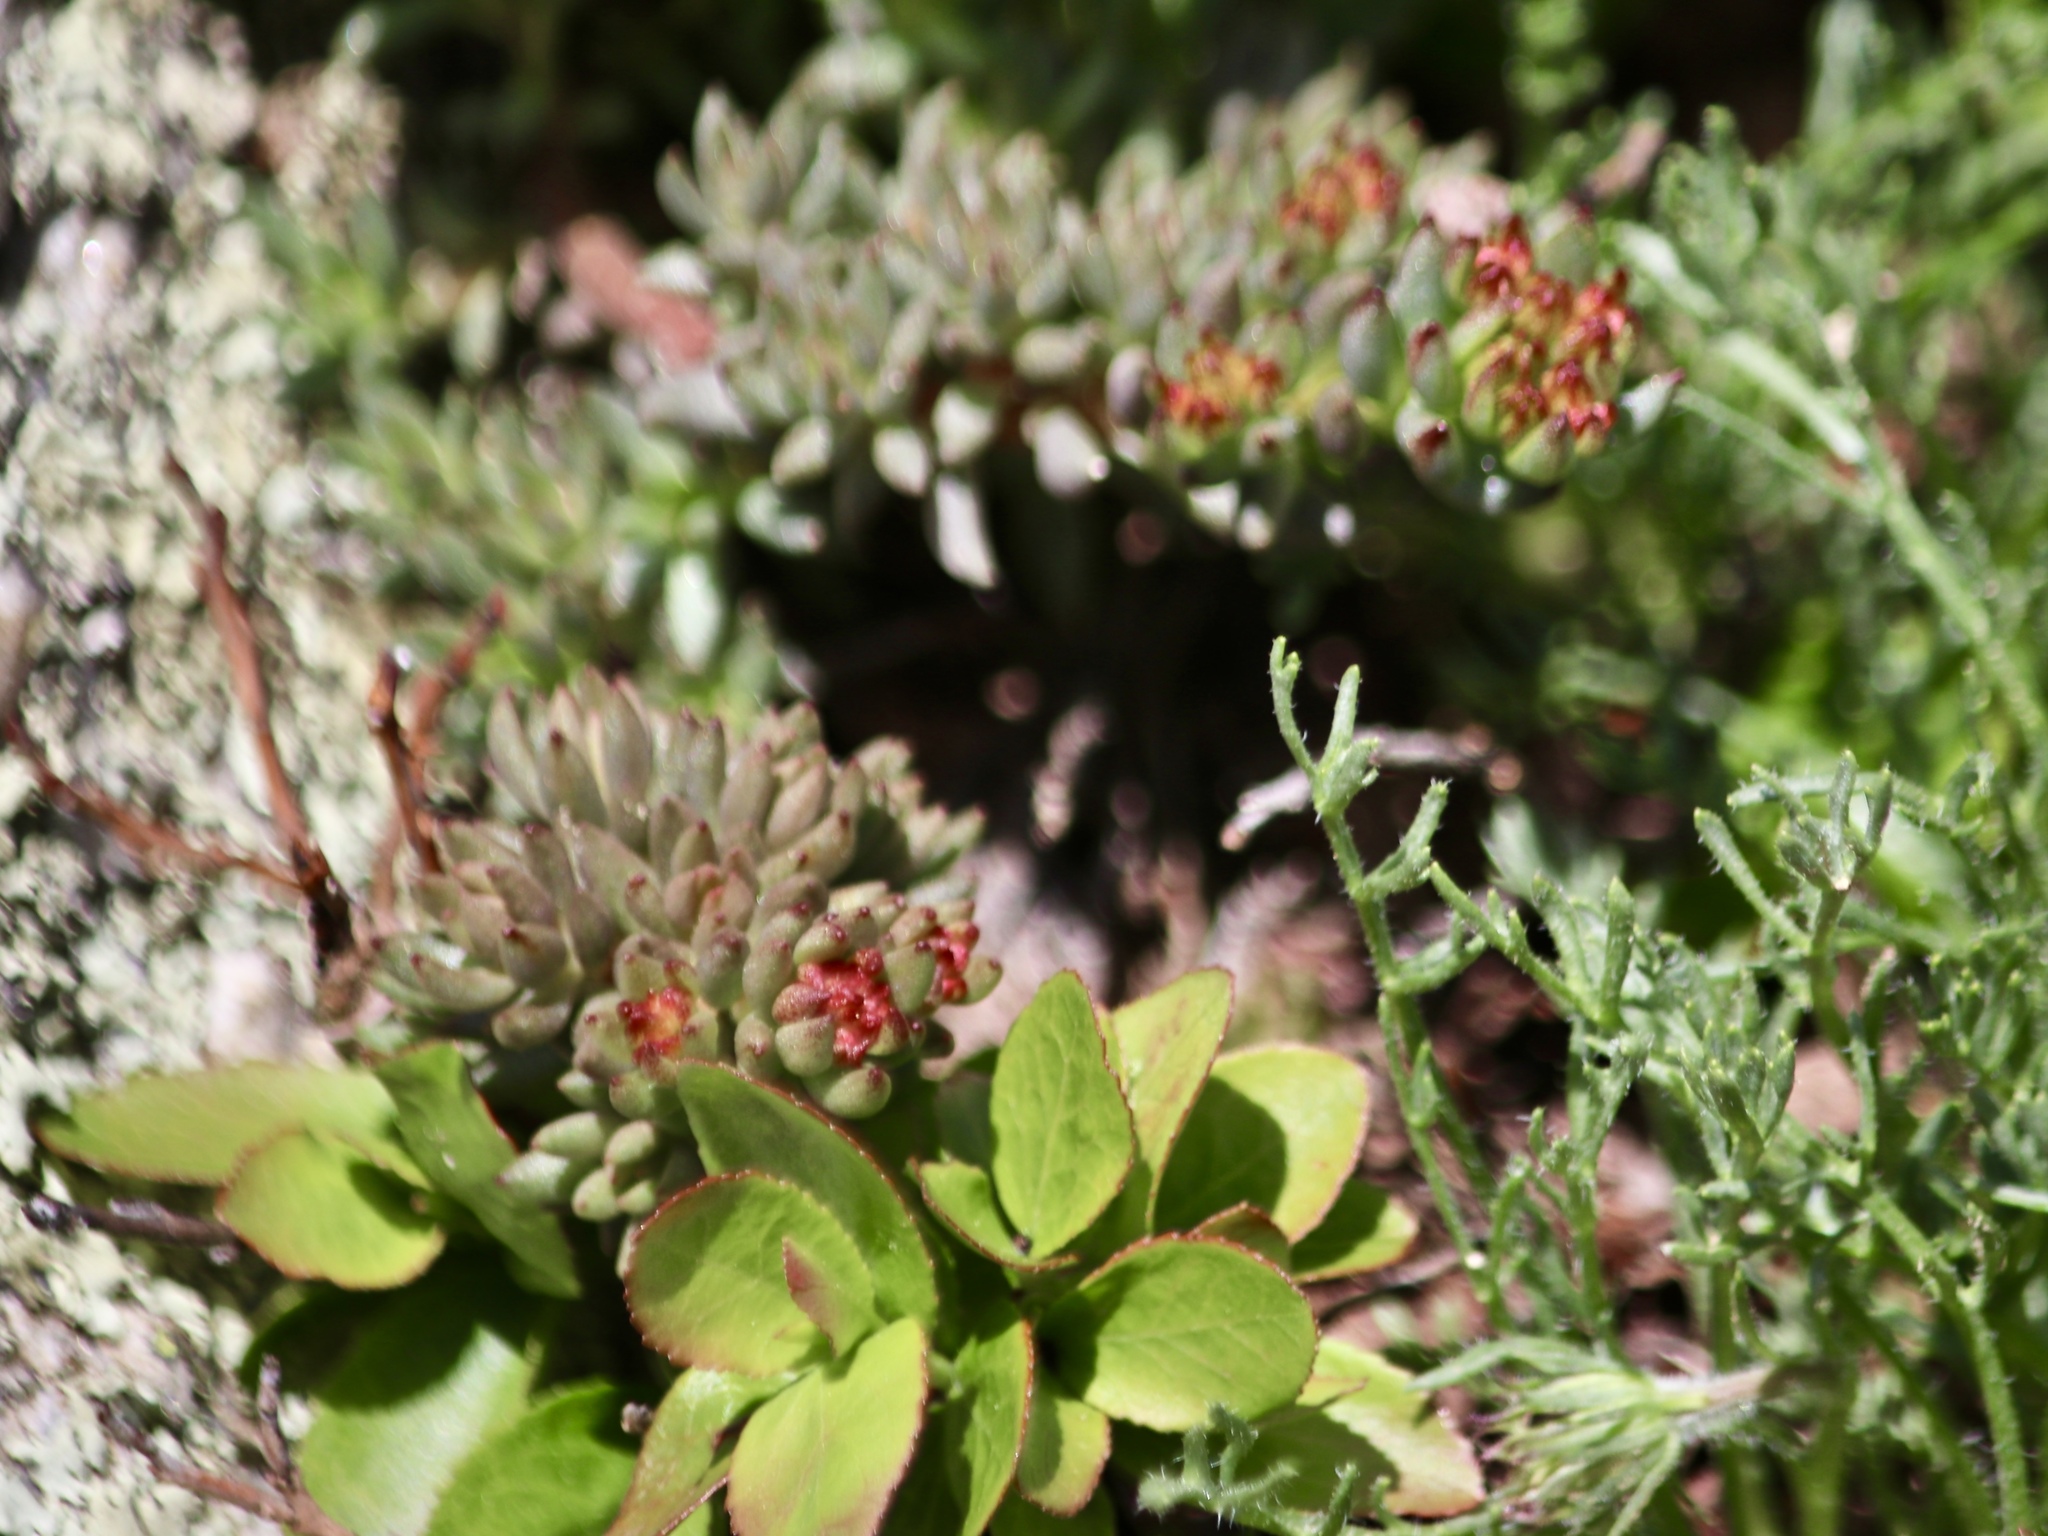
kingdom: Plantae
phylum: Tracheophyta
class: Magnoliopsida
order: Saxifragales
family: Crassulaceae
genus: Rhodiola
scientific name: Rhodiola integrifolia
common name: Western roseroot
